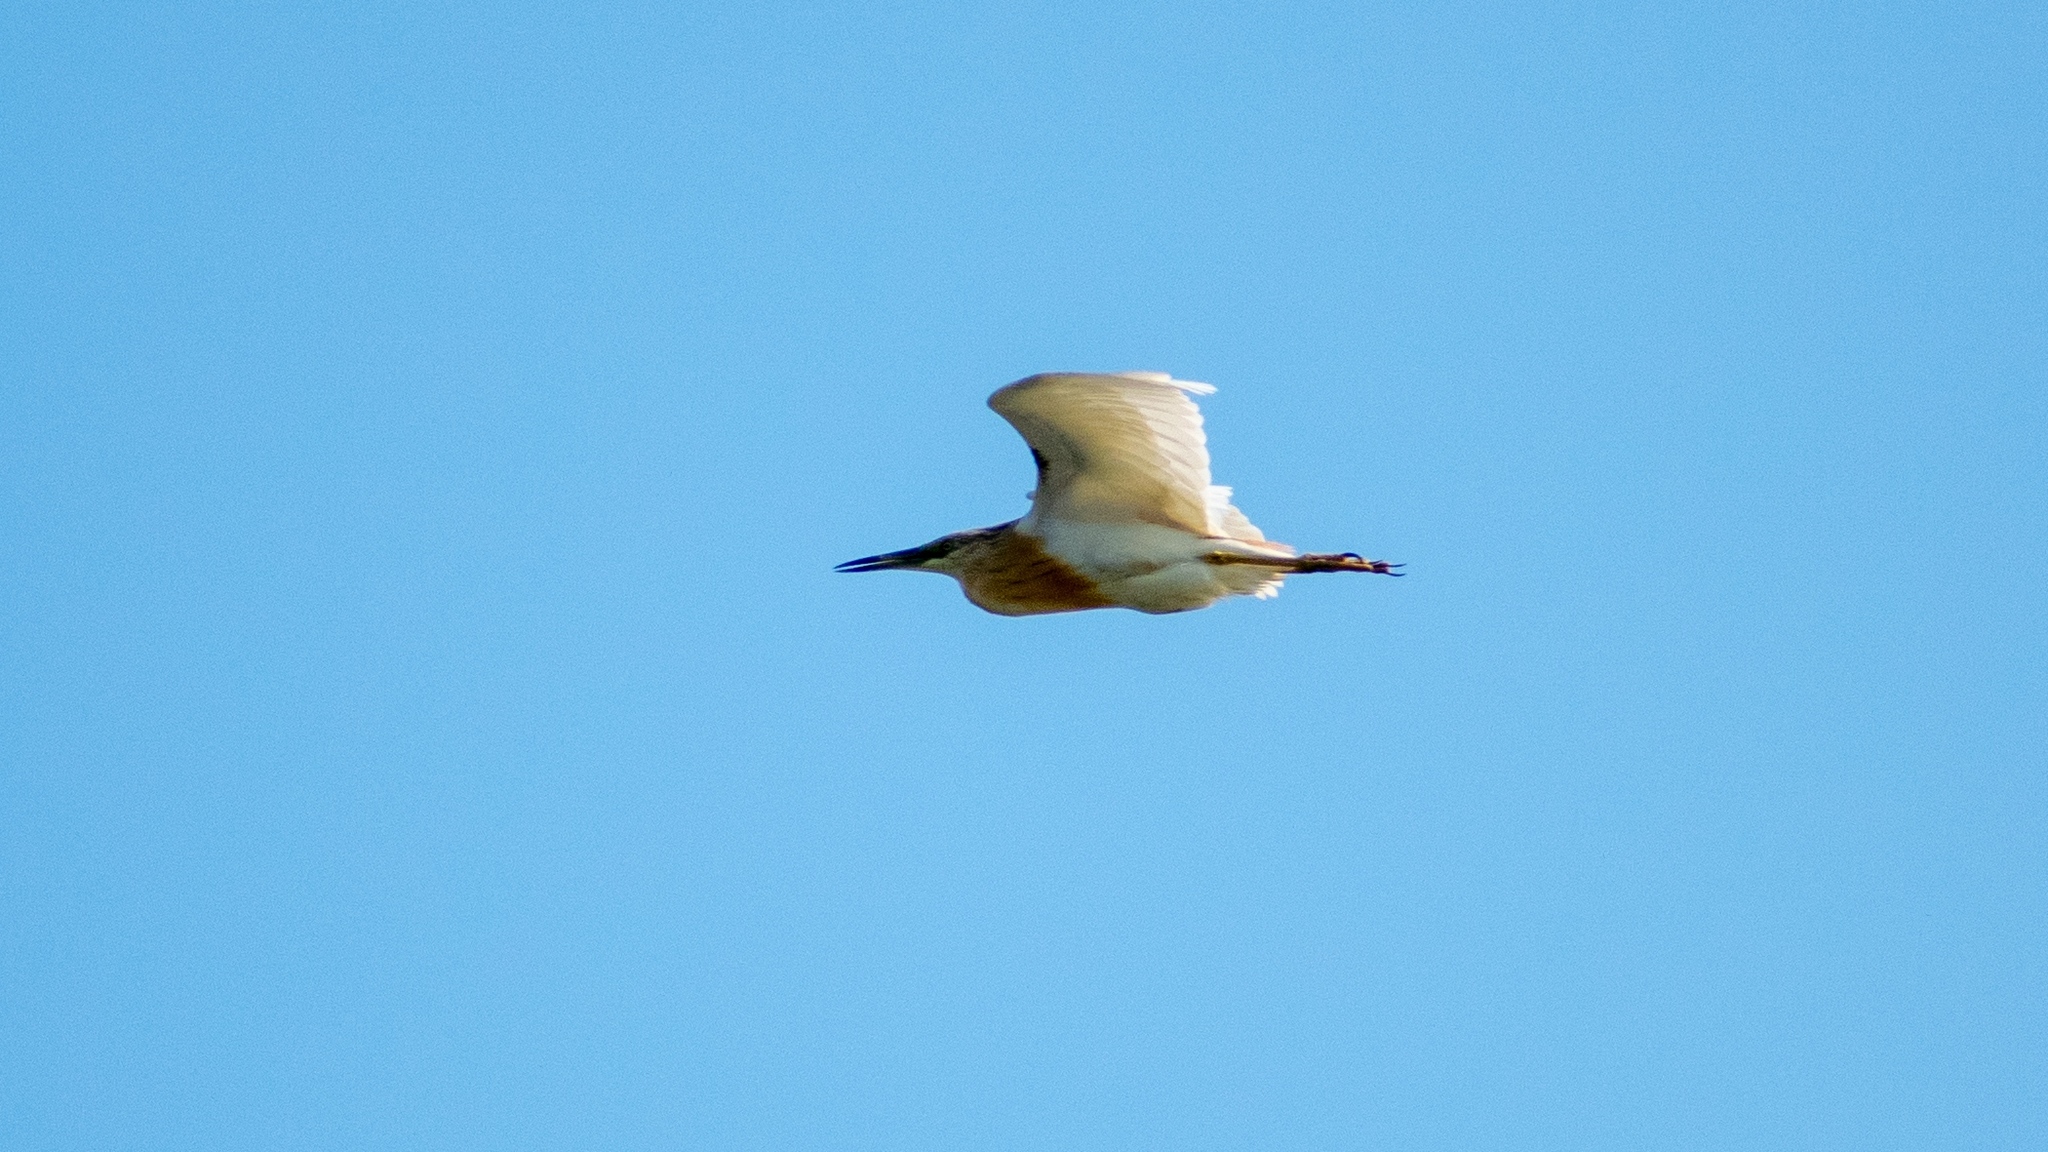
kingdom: Animalia
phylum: Chordata
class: Aves
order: Pelecaniformes
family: Ardeidae
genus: Ardeola
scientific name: Ardeola ralloides
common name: Squacco heron
